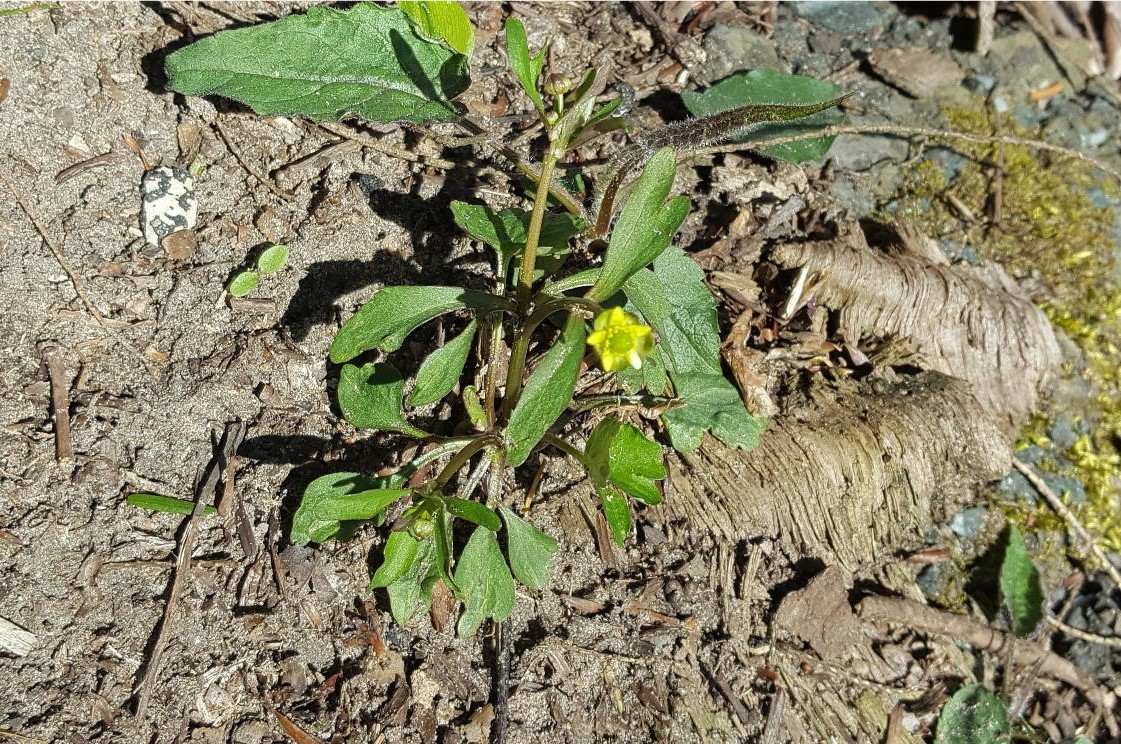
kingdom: Plantae
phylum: Tracheophyta
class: Magnoliopsida
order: Ranunculales
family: Ranunculaceae
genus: Ranunculus
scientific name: Ranunculus abortivus
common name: Early wood buttercup
